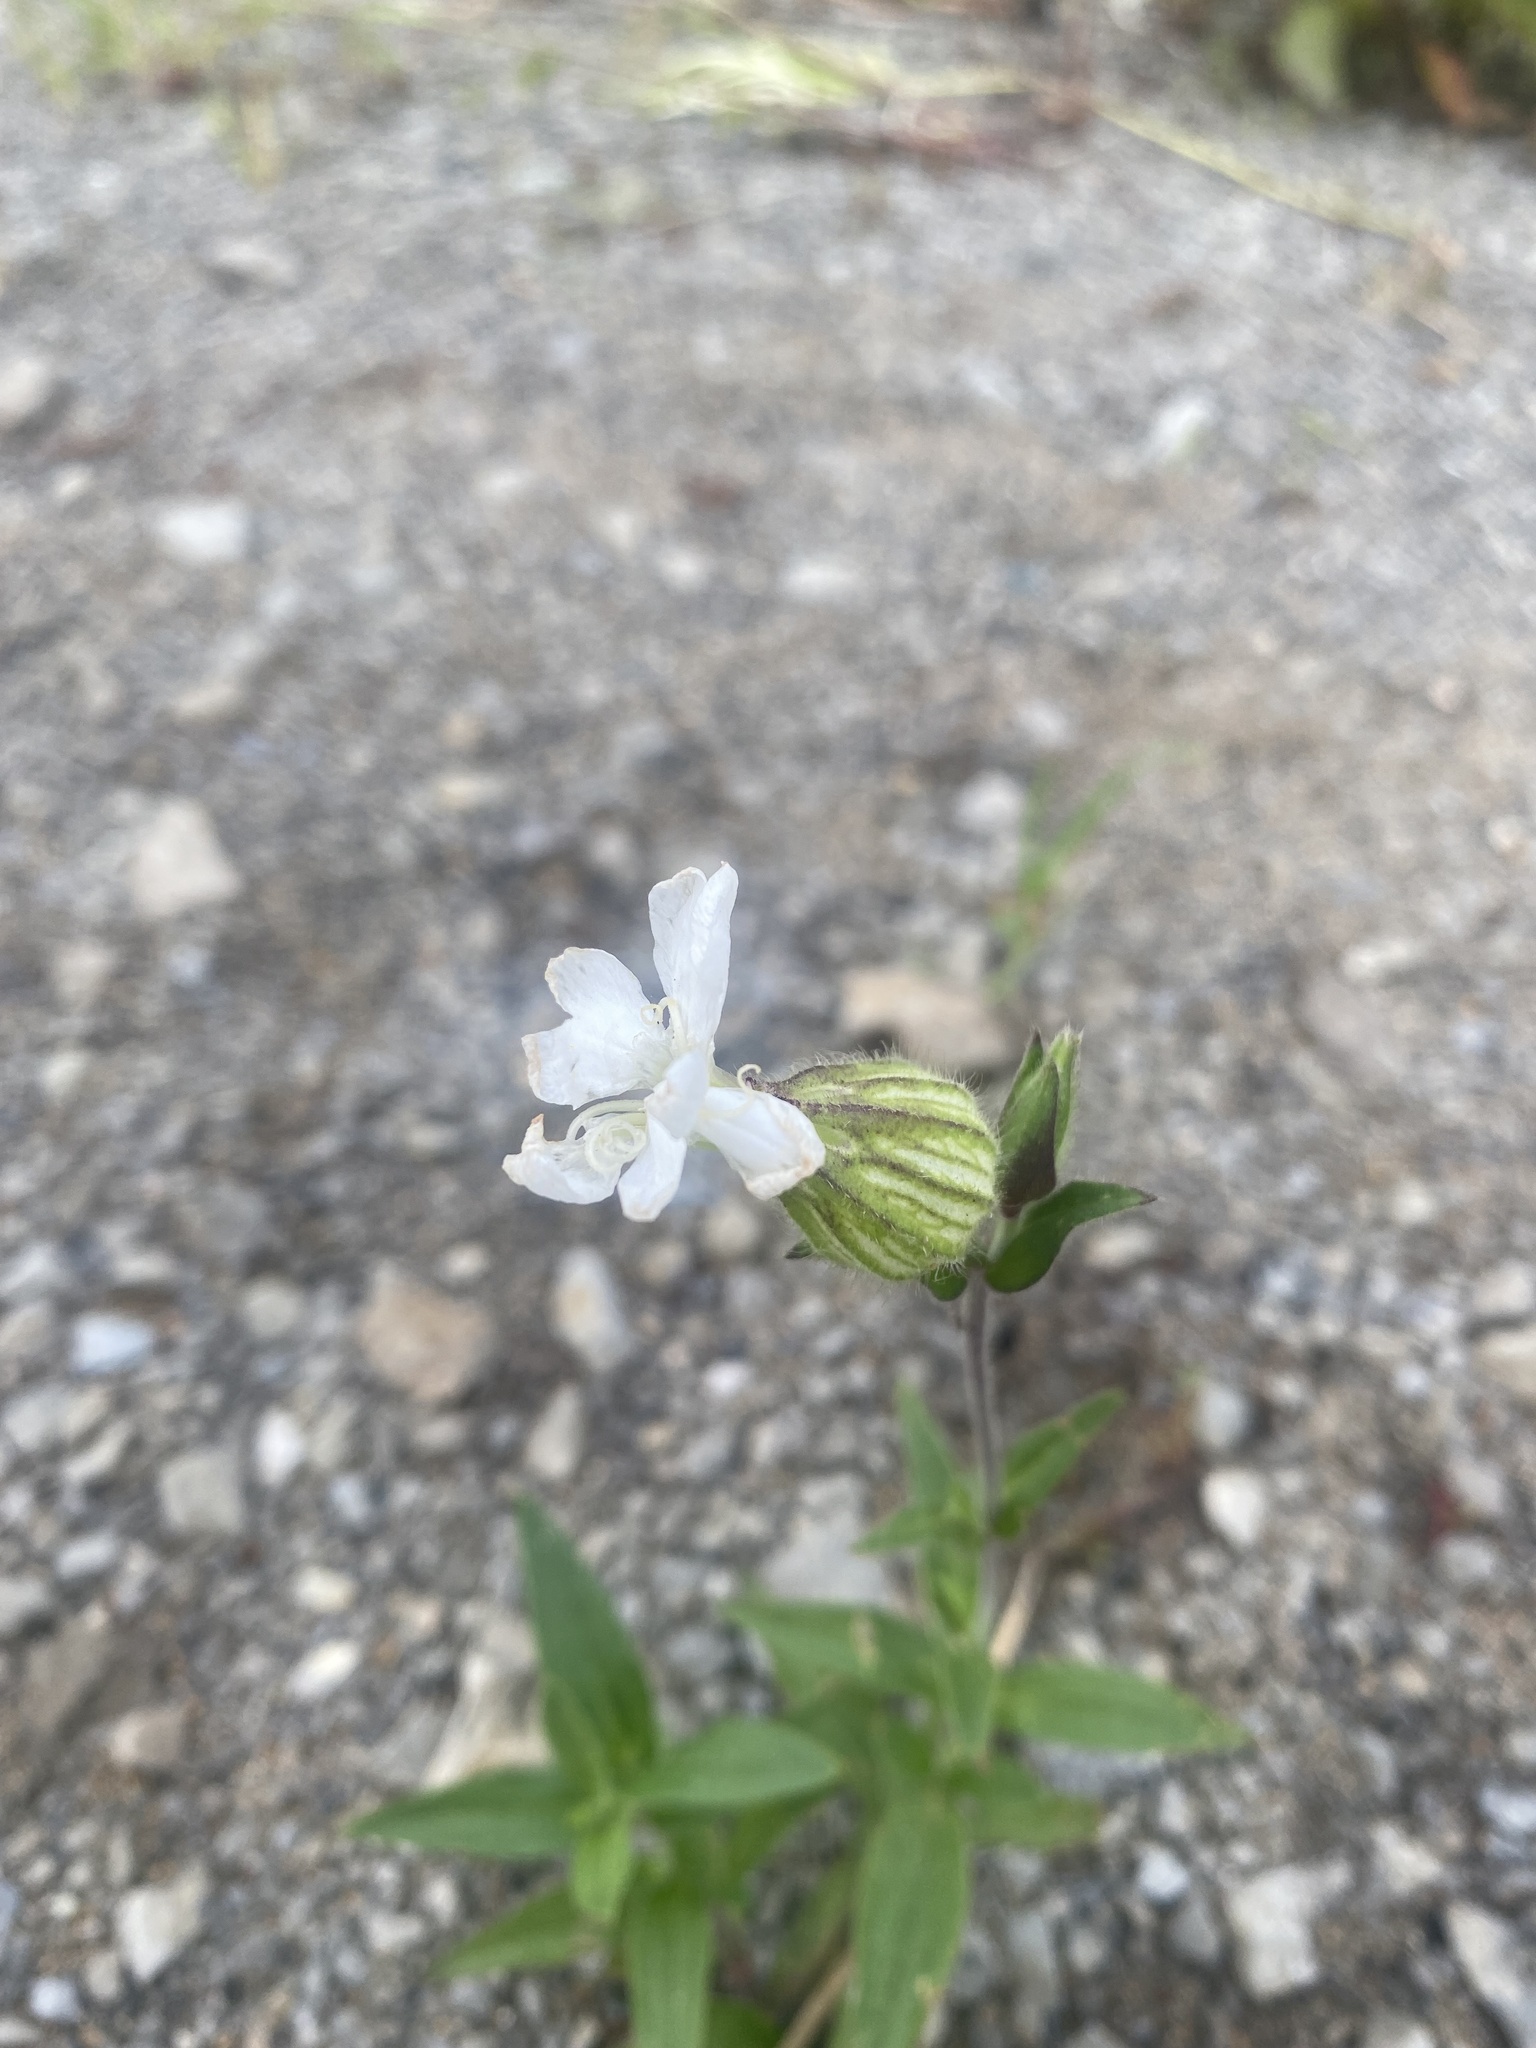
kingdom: Plantae
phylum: Tracheophyta
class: Magnoliopsida
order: Caryophyllales
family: Caryophyllaceae
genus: Silene
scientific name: Silene latifolia
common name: White campion
